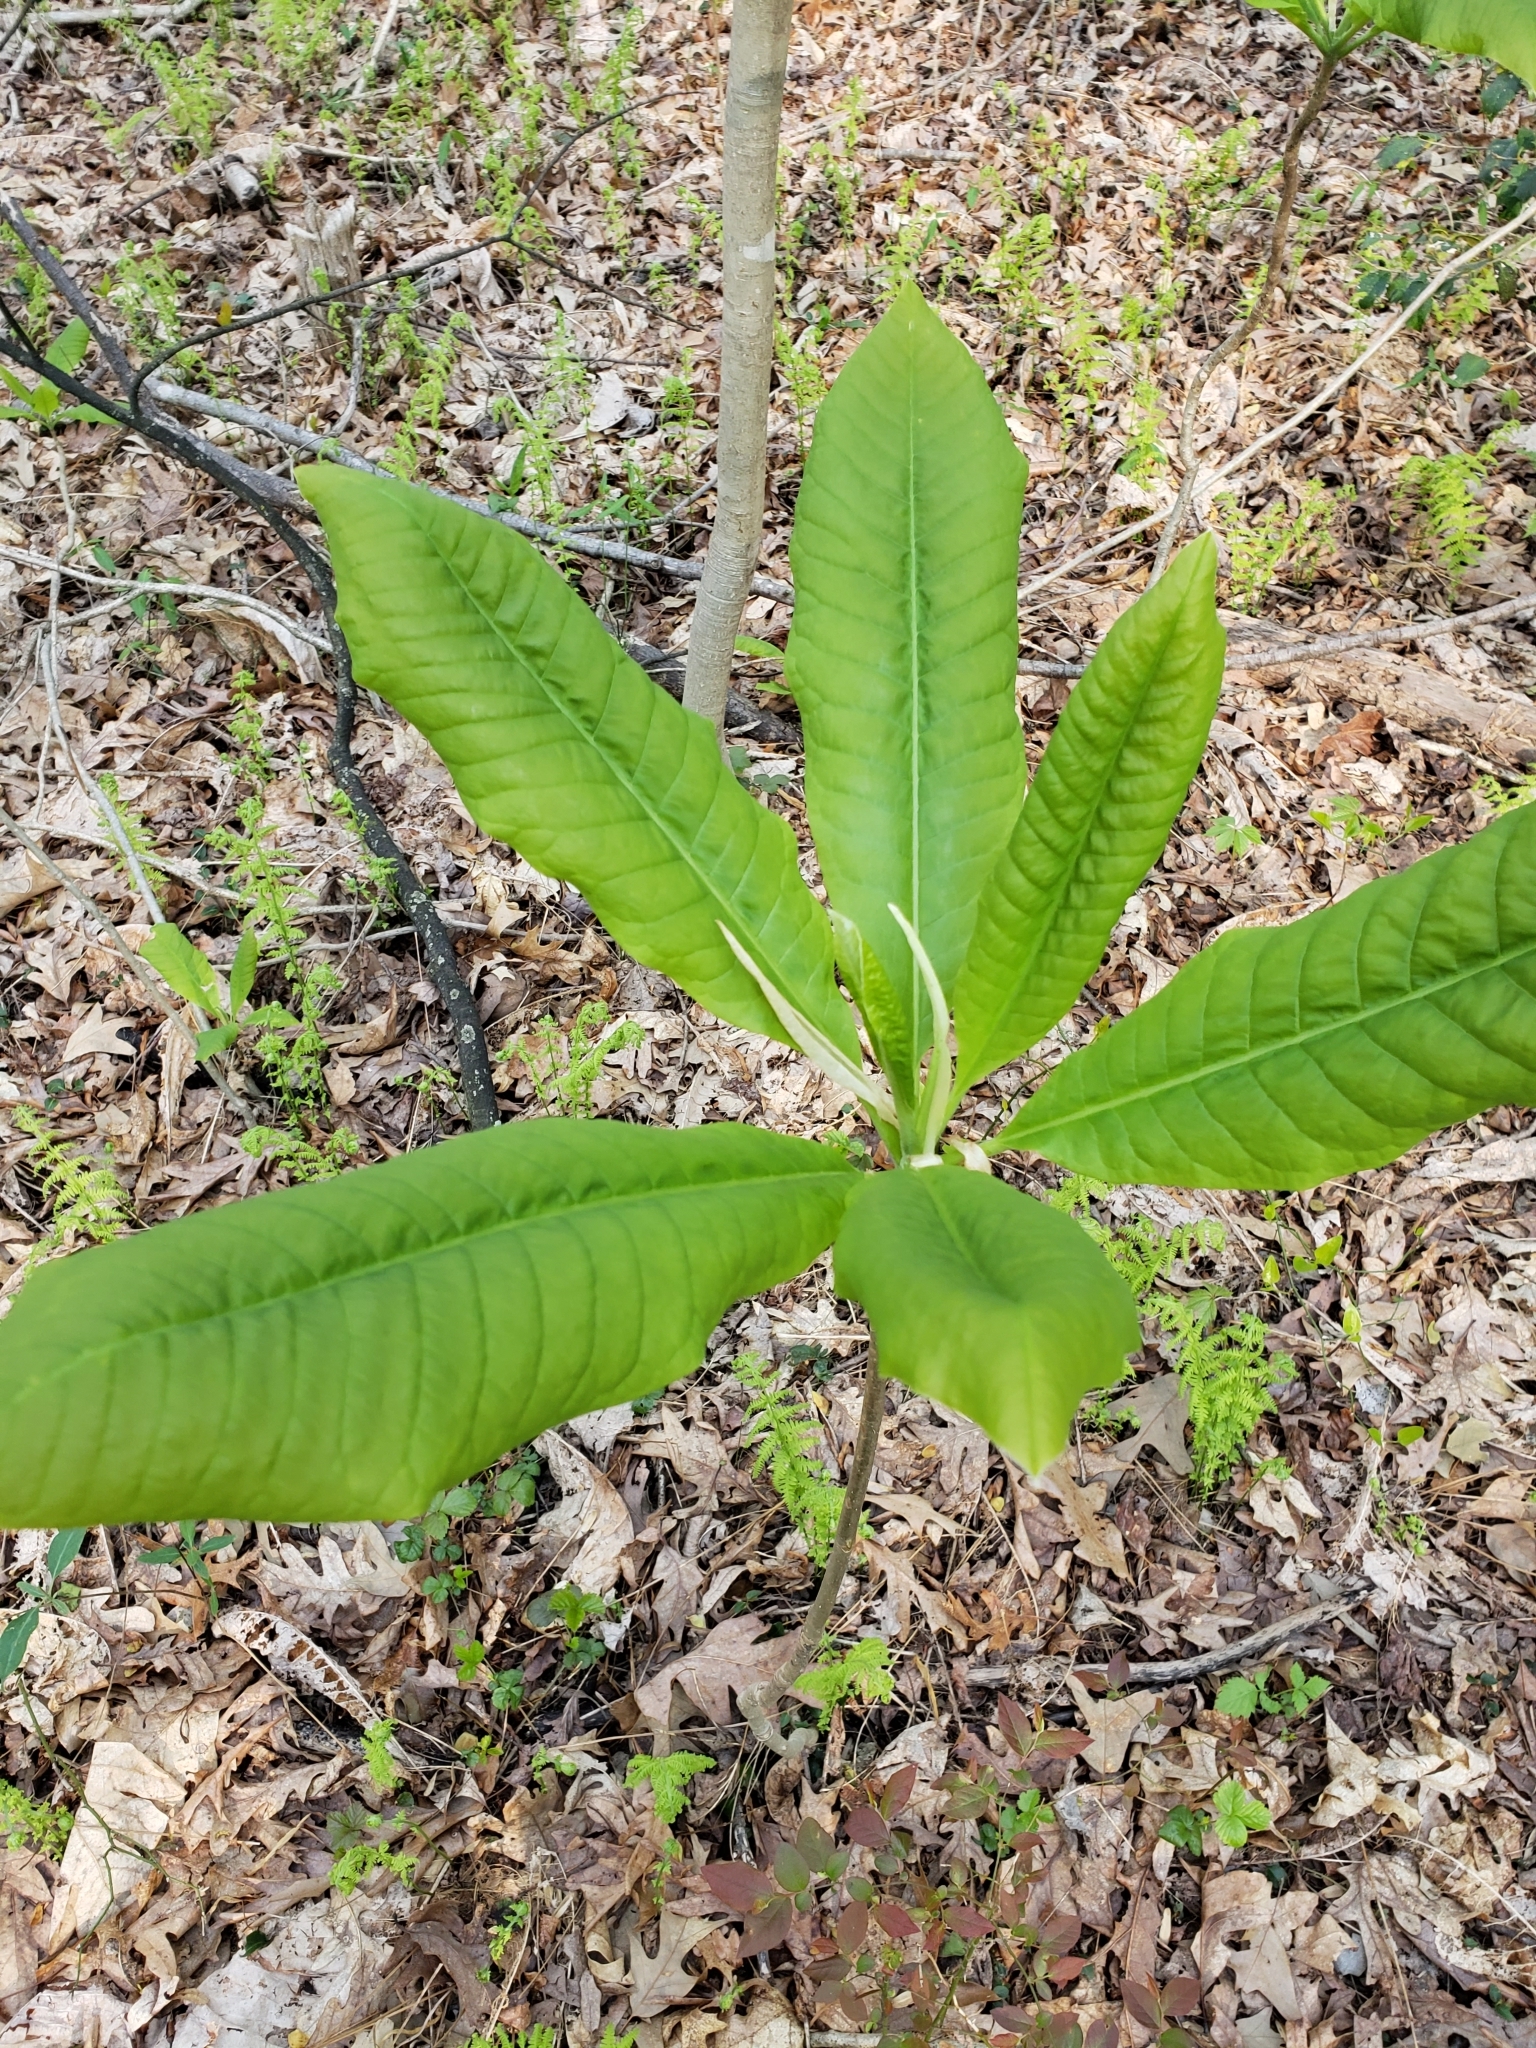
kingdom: Plantae
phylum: Tracheophyta
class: Magnoliopsida
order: Magnoliales
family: Magnoliaceae
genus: Magnolia
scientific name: Magnolia tripetala
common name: Umbrella magnolia
